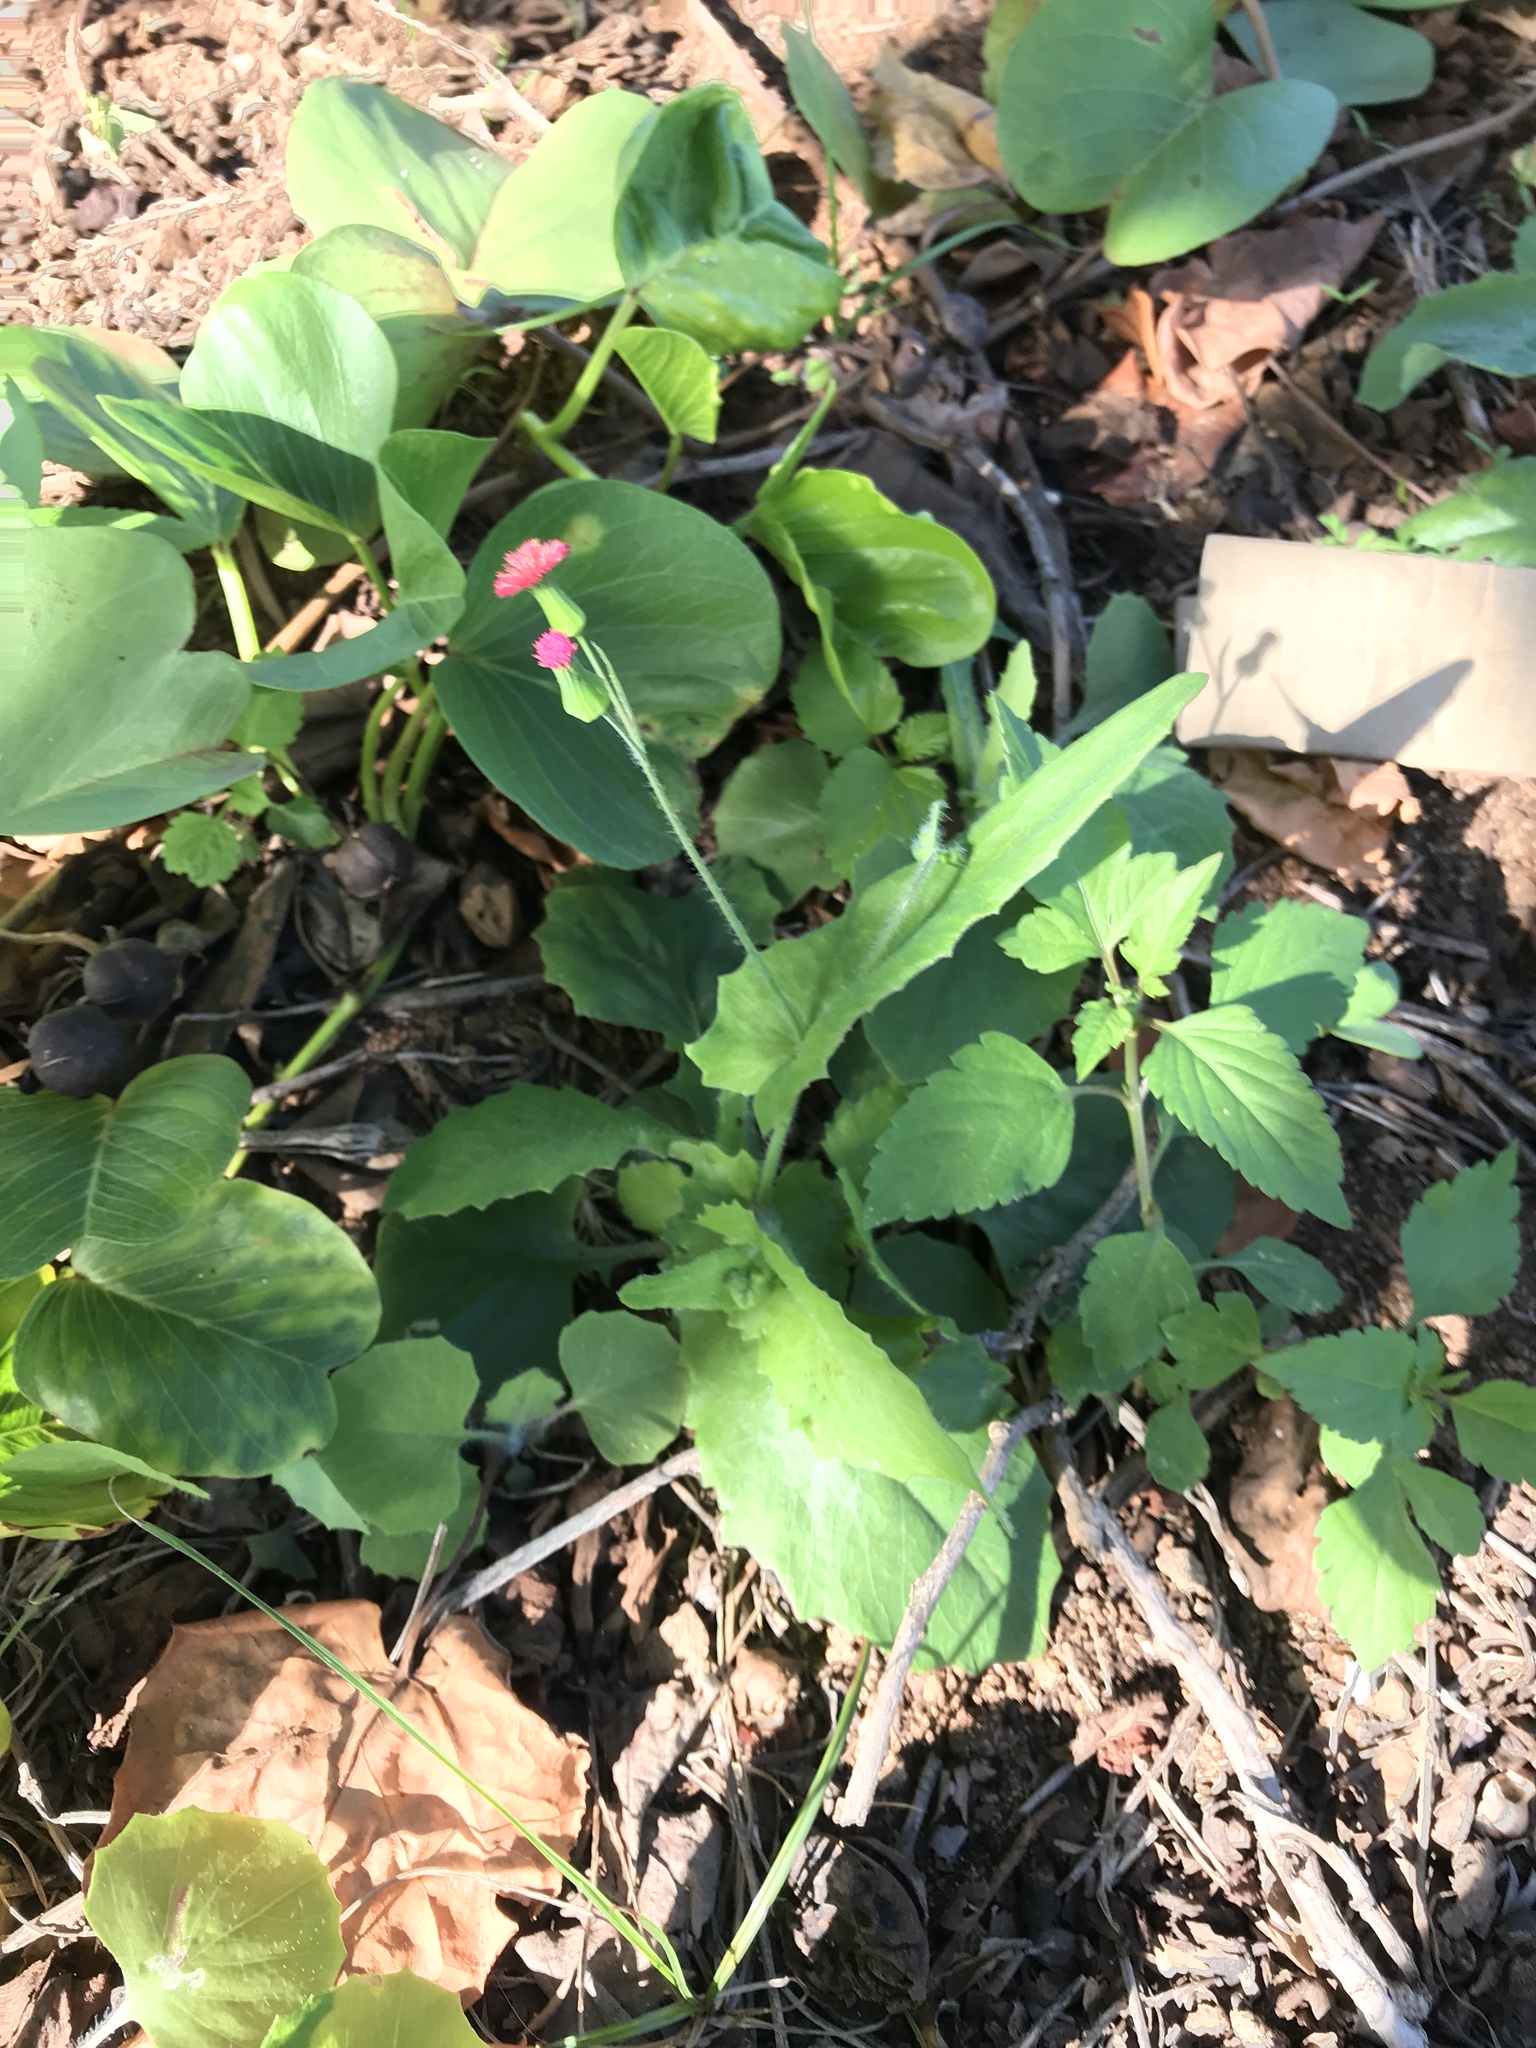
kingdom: Plantae
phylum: Tracheophyta
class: Magnoliopsida
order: Asterales
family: Asteraceae
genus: Emilia
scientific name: Emilia fosbergii
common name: Florida tasselflower
